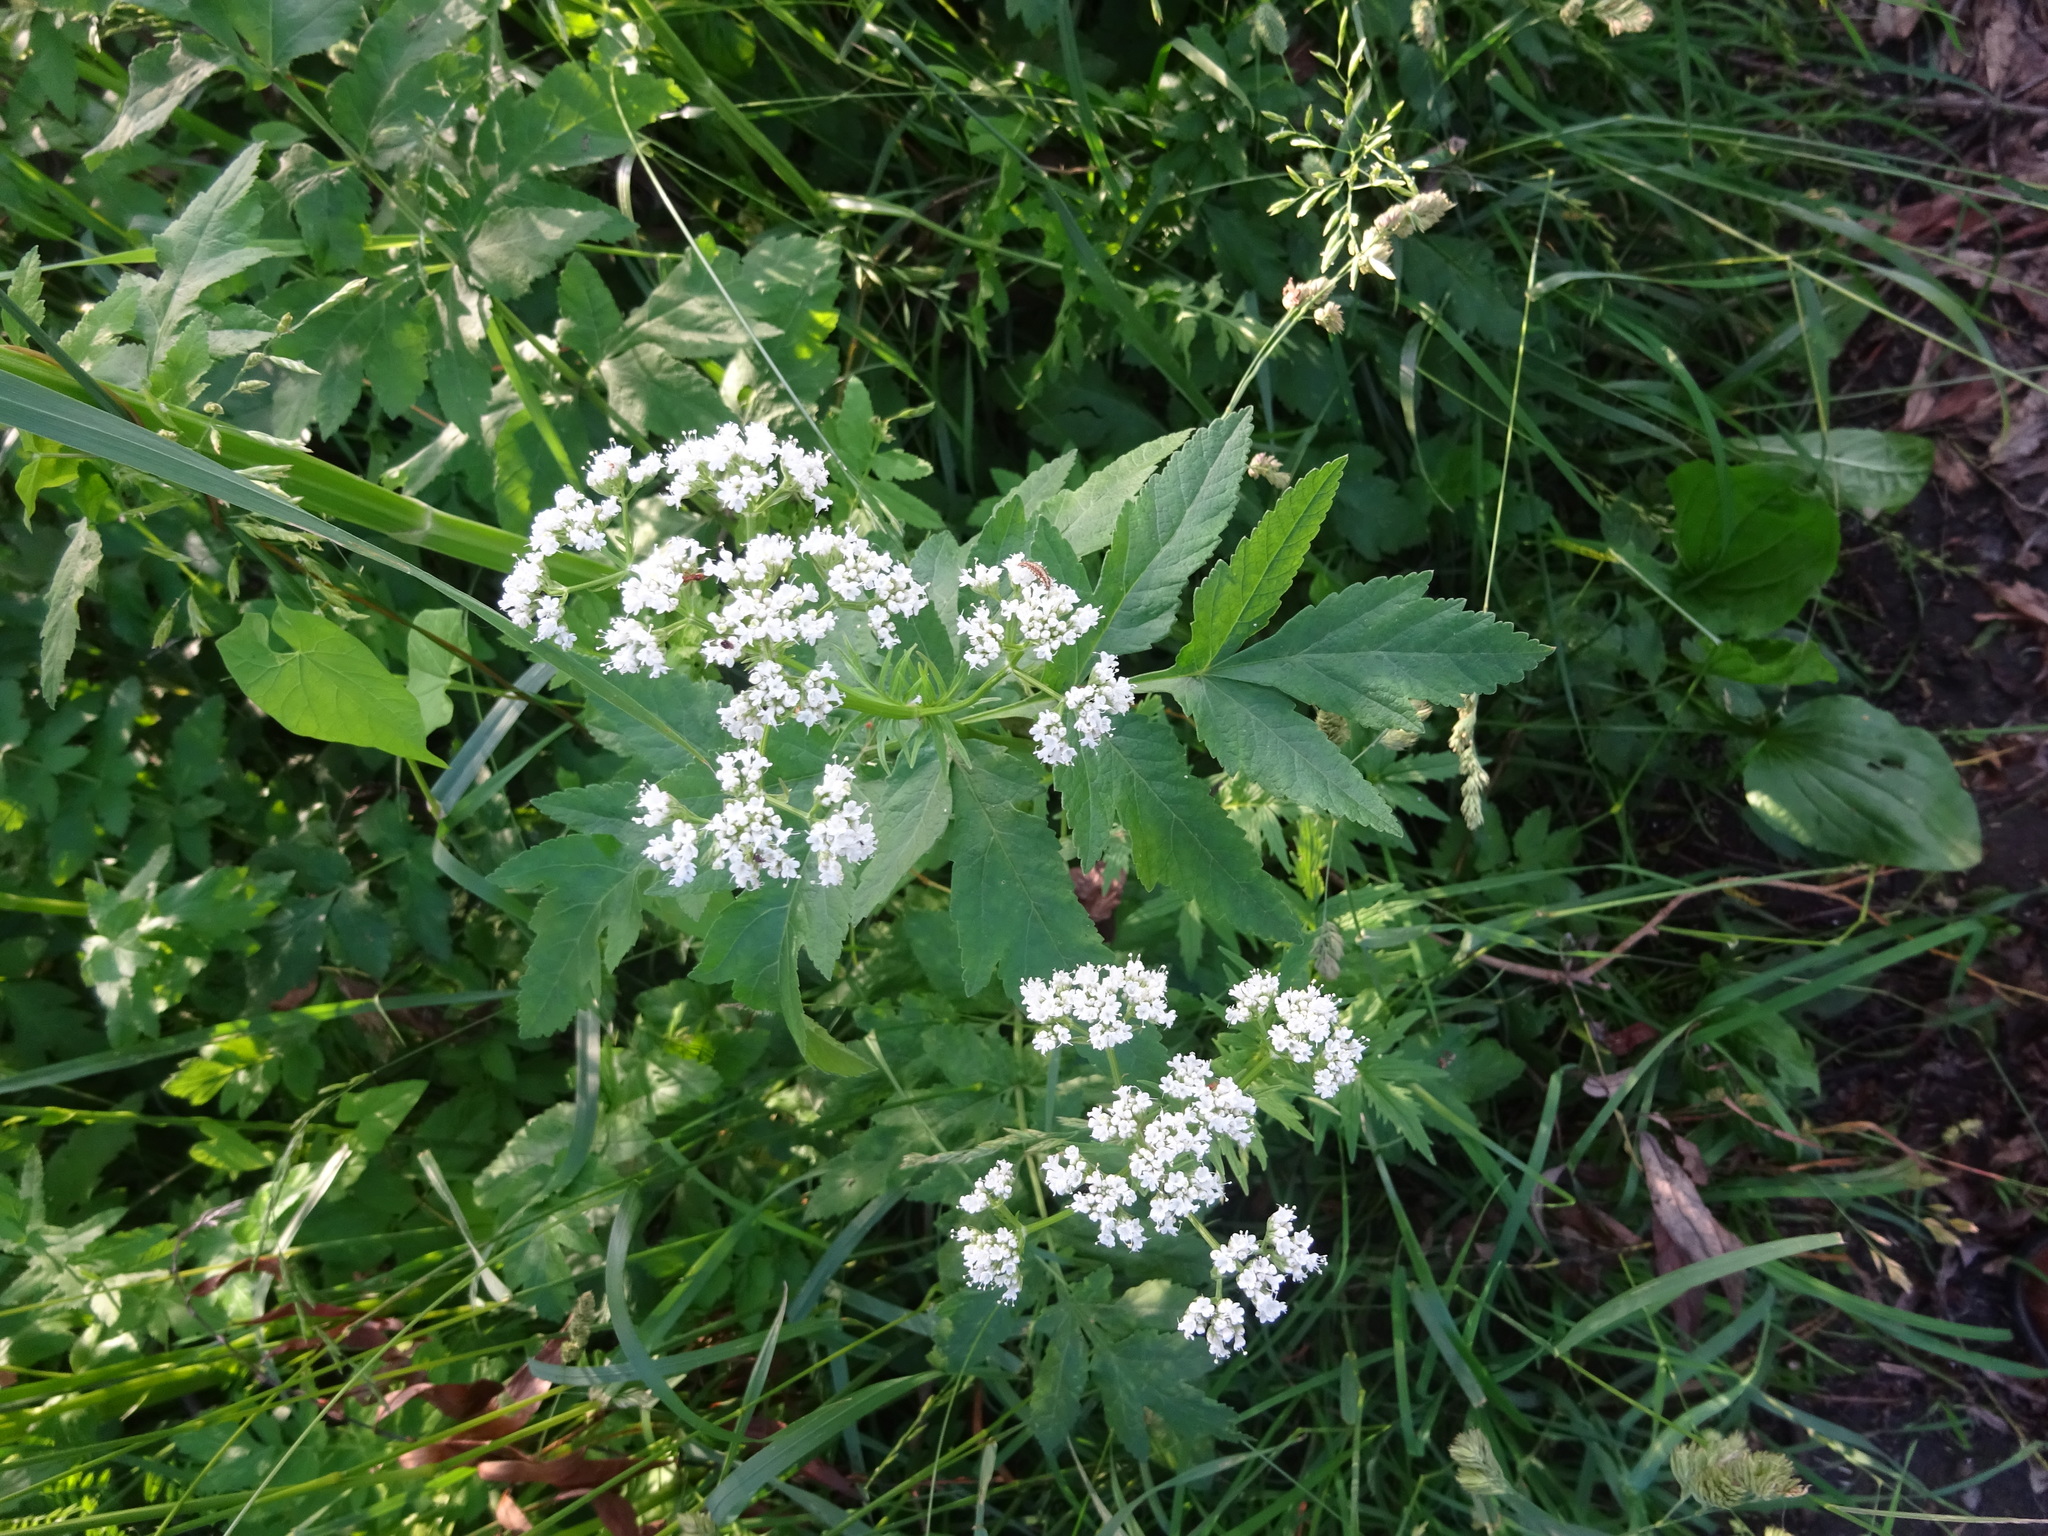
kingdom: Plantae
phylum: Tracheophyta
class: Magnoliopsida
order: Dipsacales
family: Caprifoliaceae
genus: Valeriana
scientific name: Valeriana officinalis
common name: Common valerian
